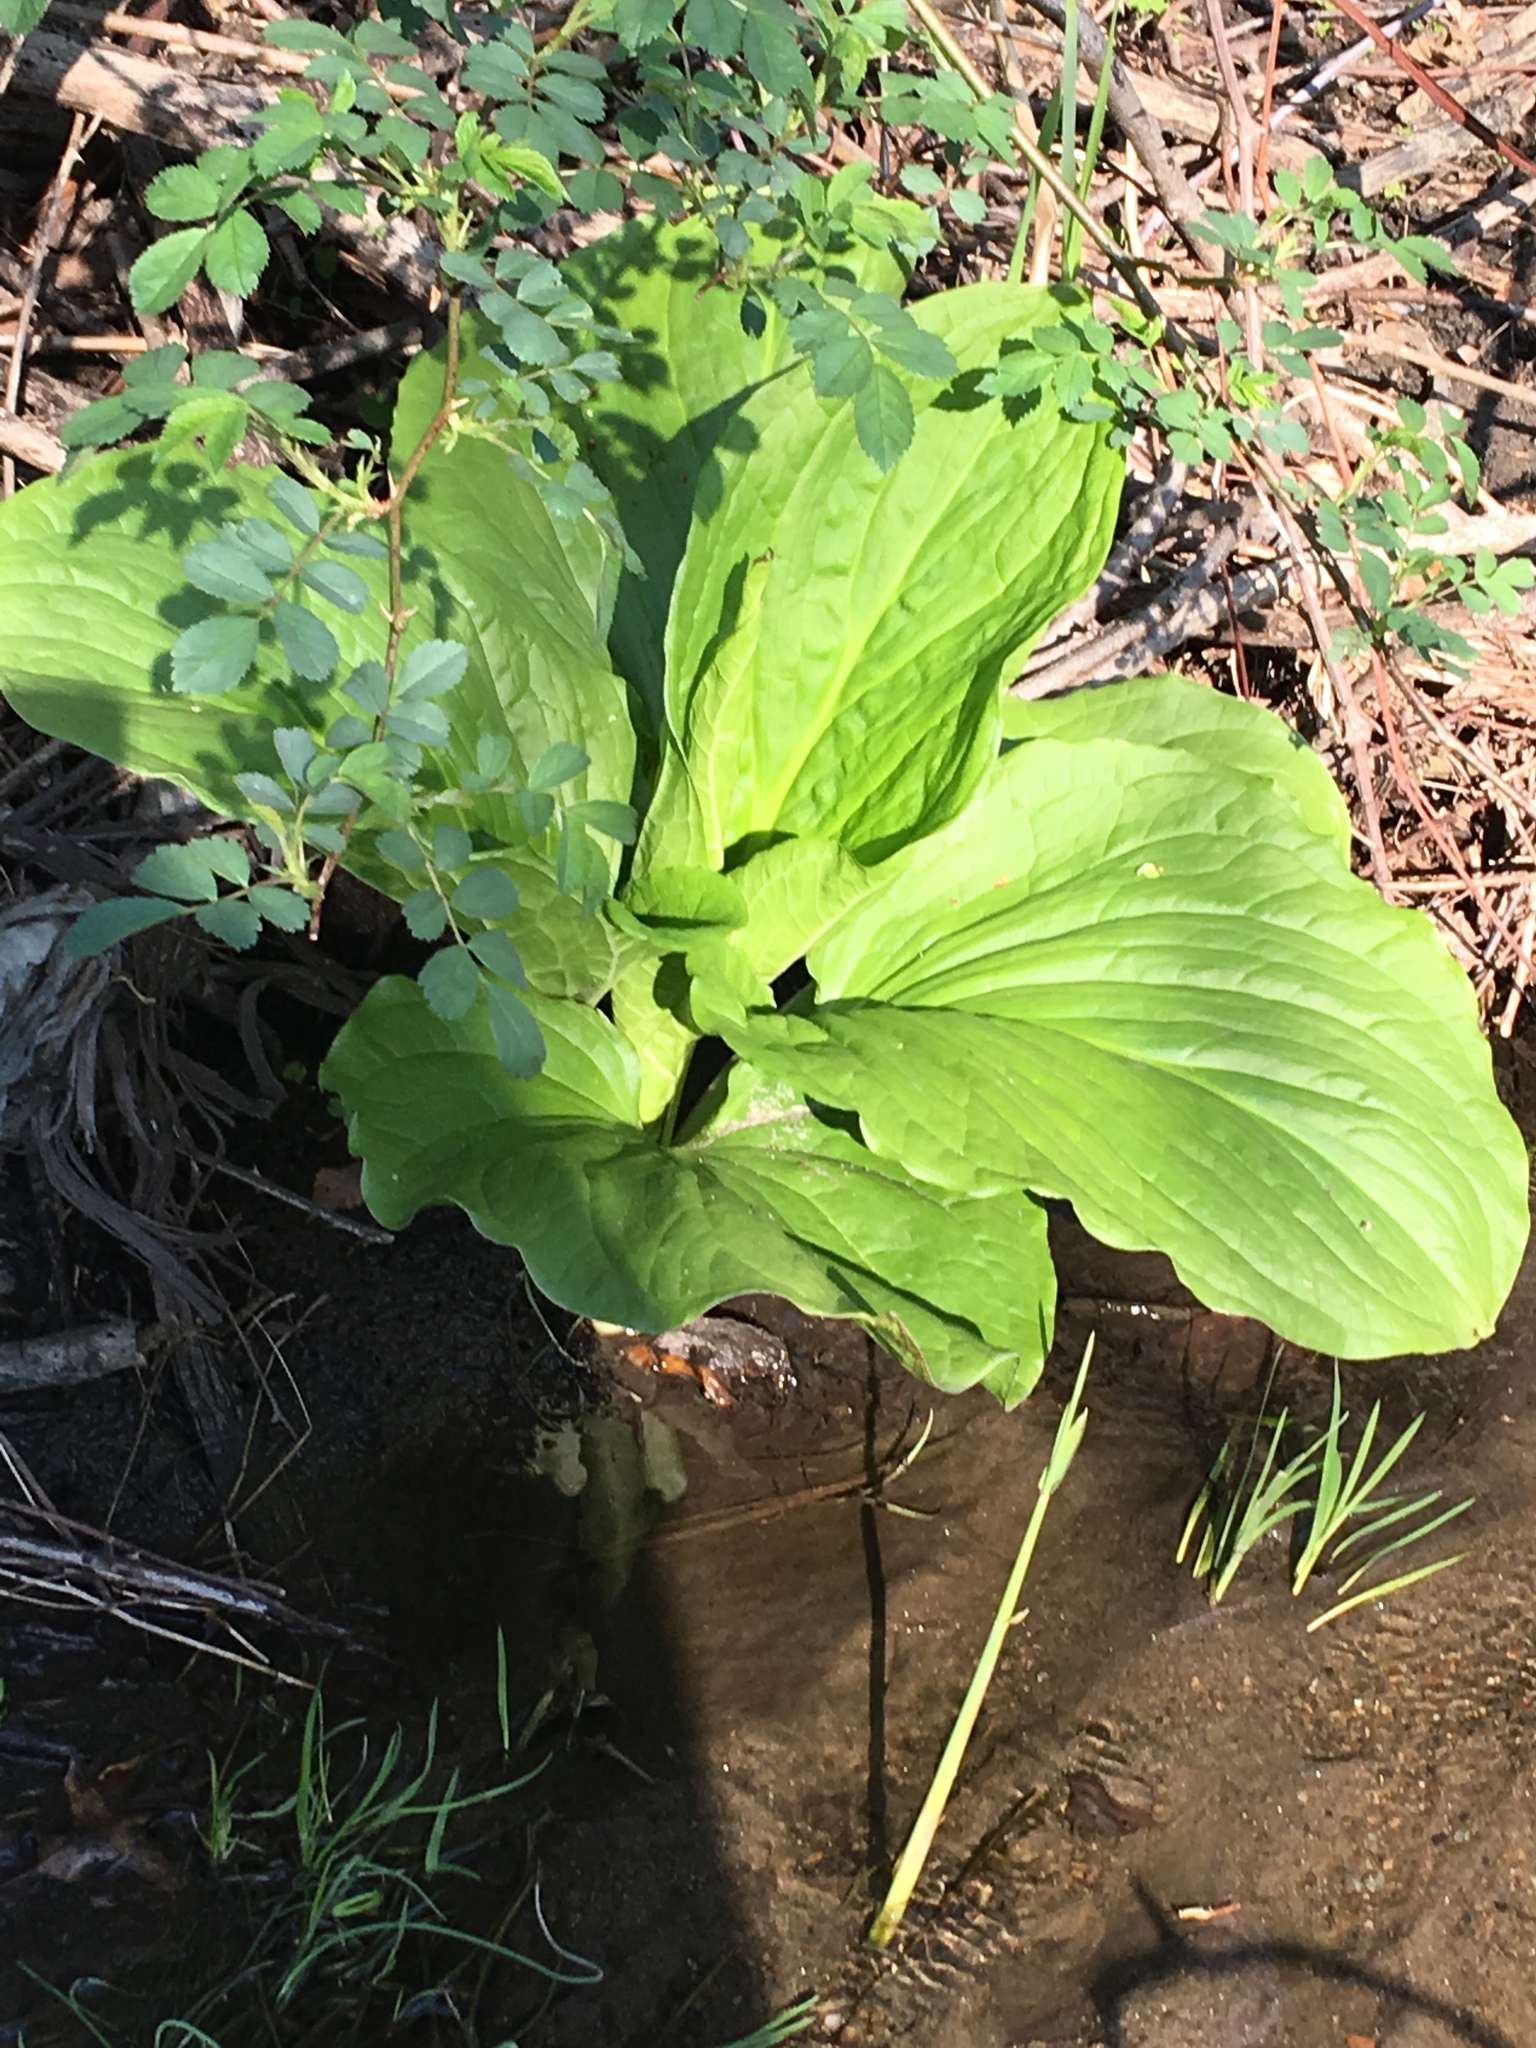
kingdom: Plantae
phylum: Tracheophyta
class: Liliopsida
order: Alismatales
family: Araceae
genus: Symplocarpus
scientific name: Symplocarpus foetidus
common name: Eastern skunk cabbage
